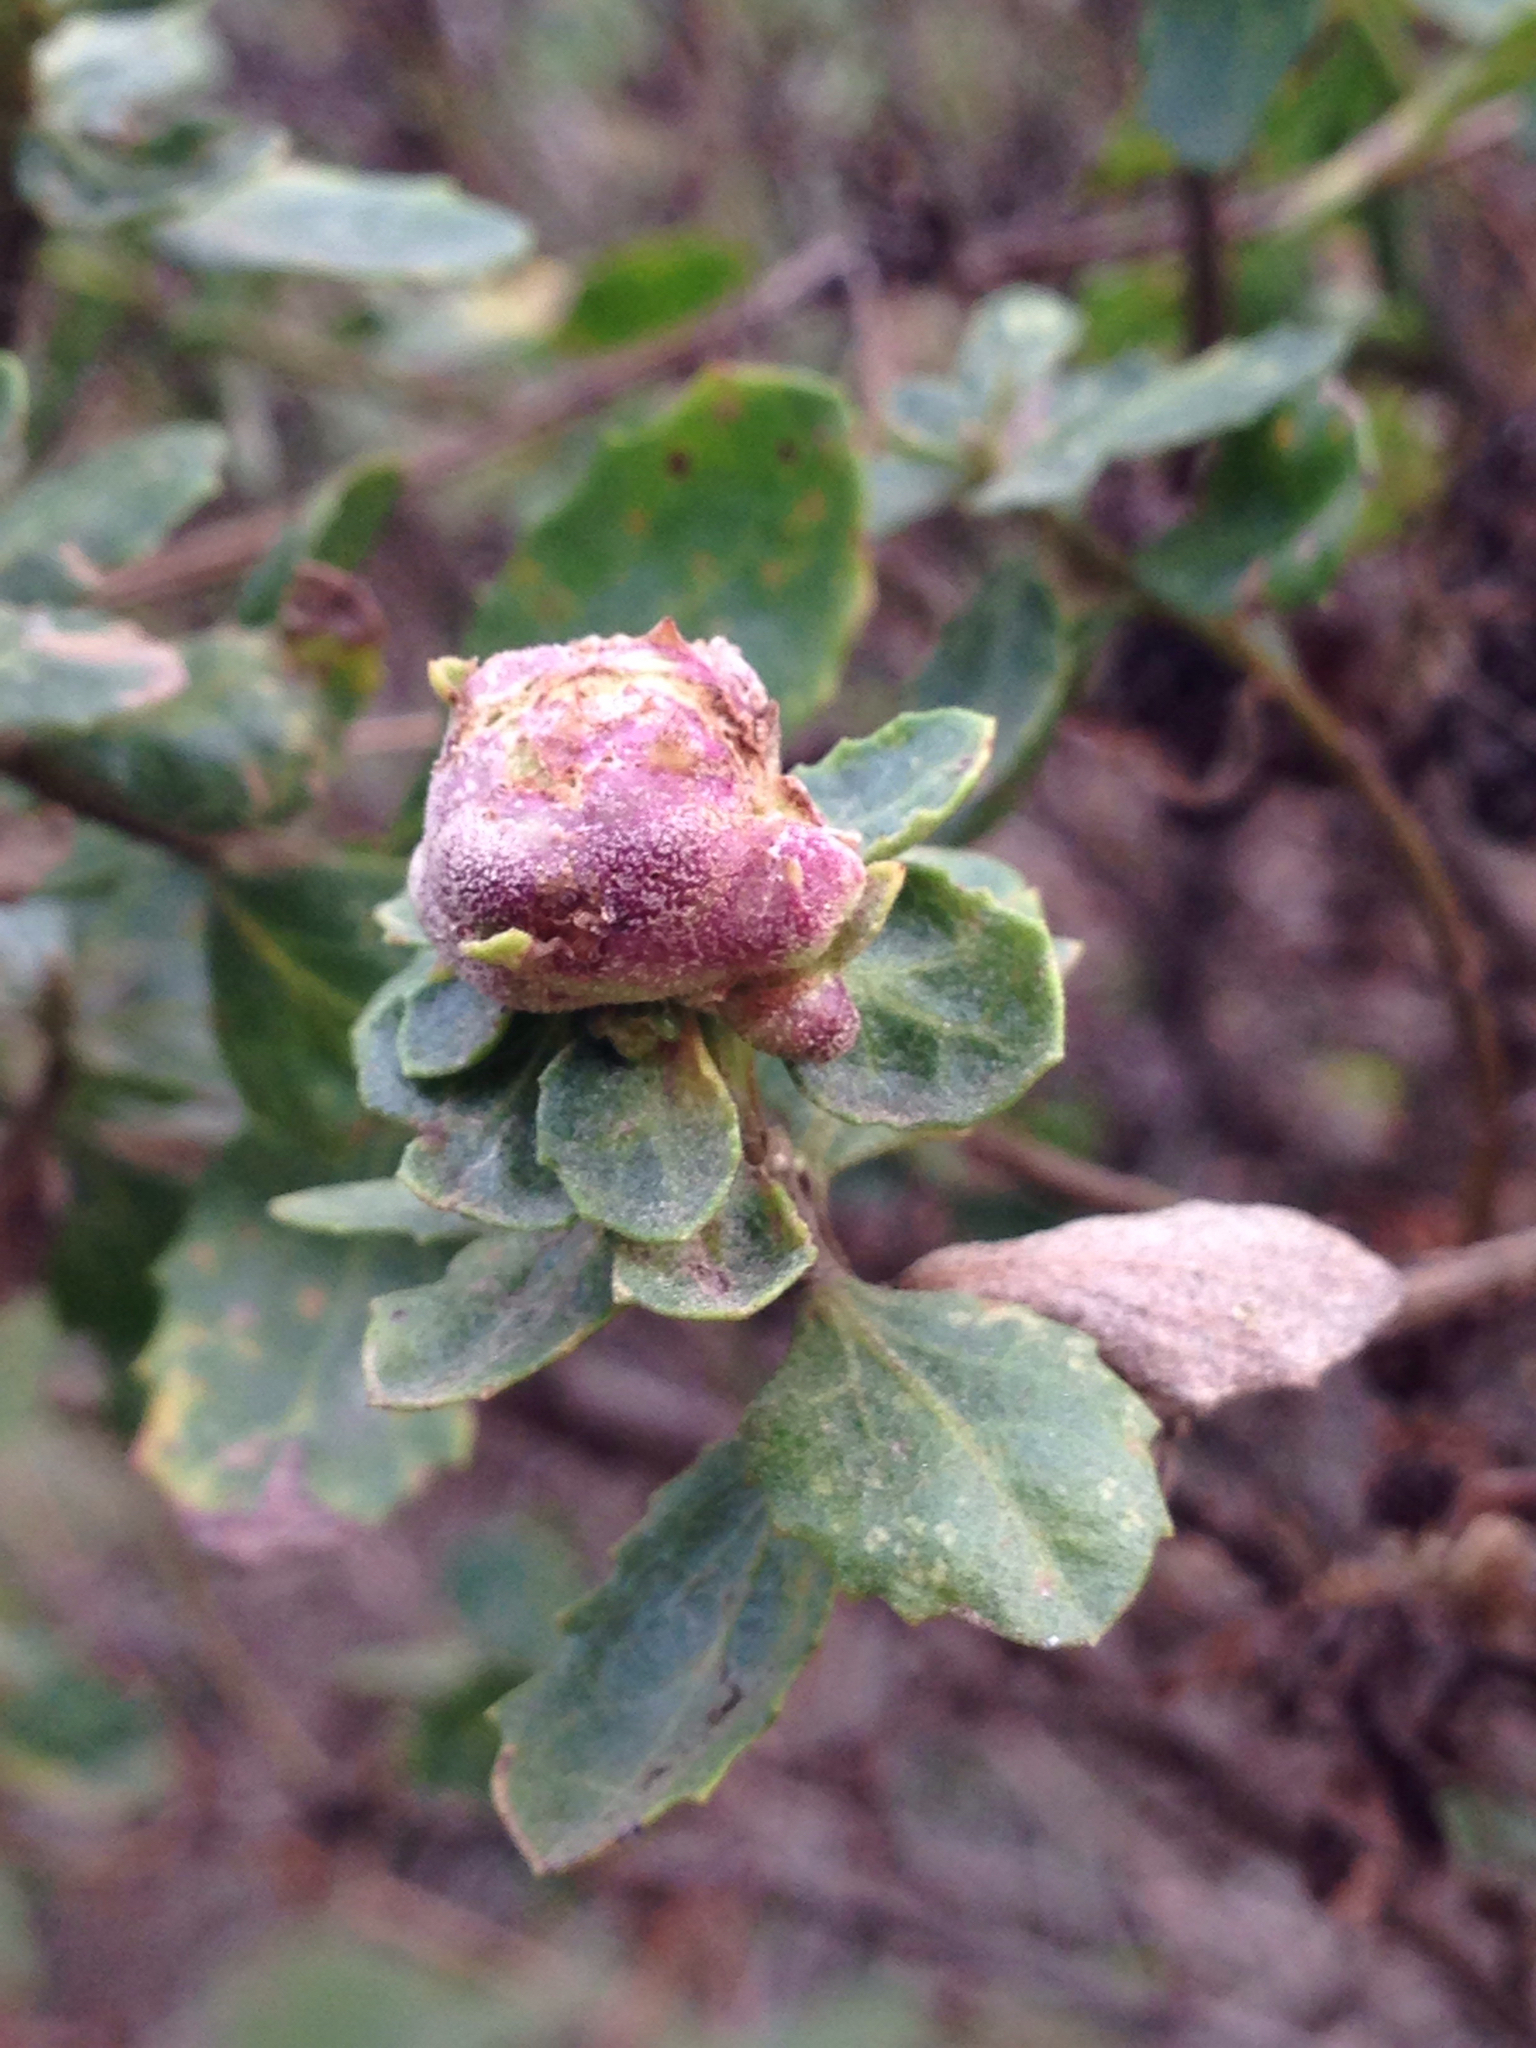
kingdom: Animalia
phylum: Arthropoda
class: Insecta
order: Diptera
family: Cecidomyiidae
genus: Rhopalomyia
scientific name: Rhopalomyia californica
